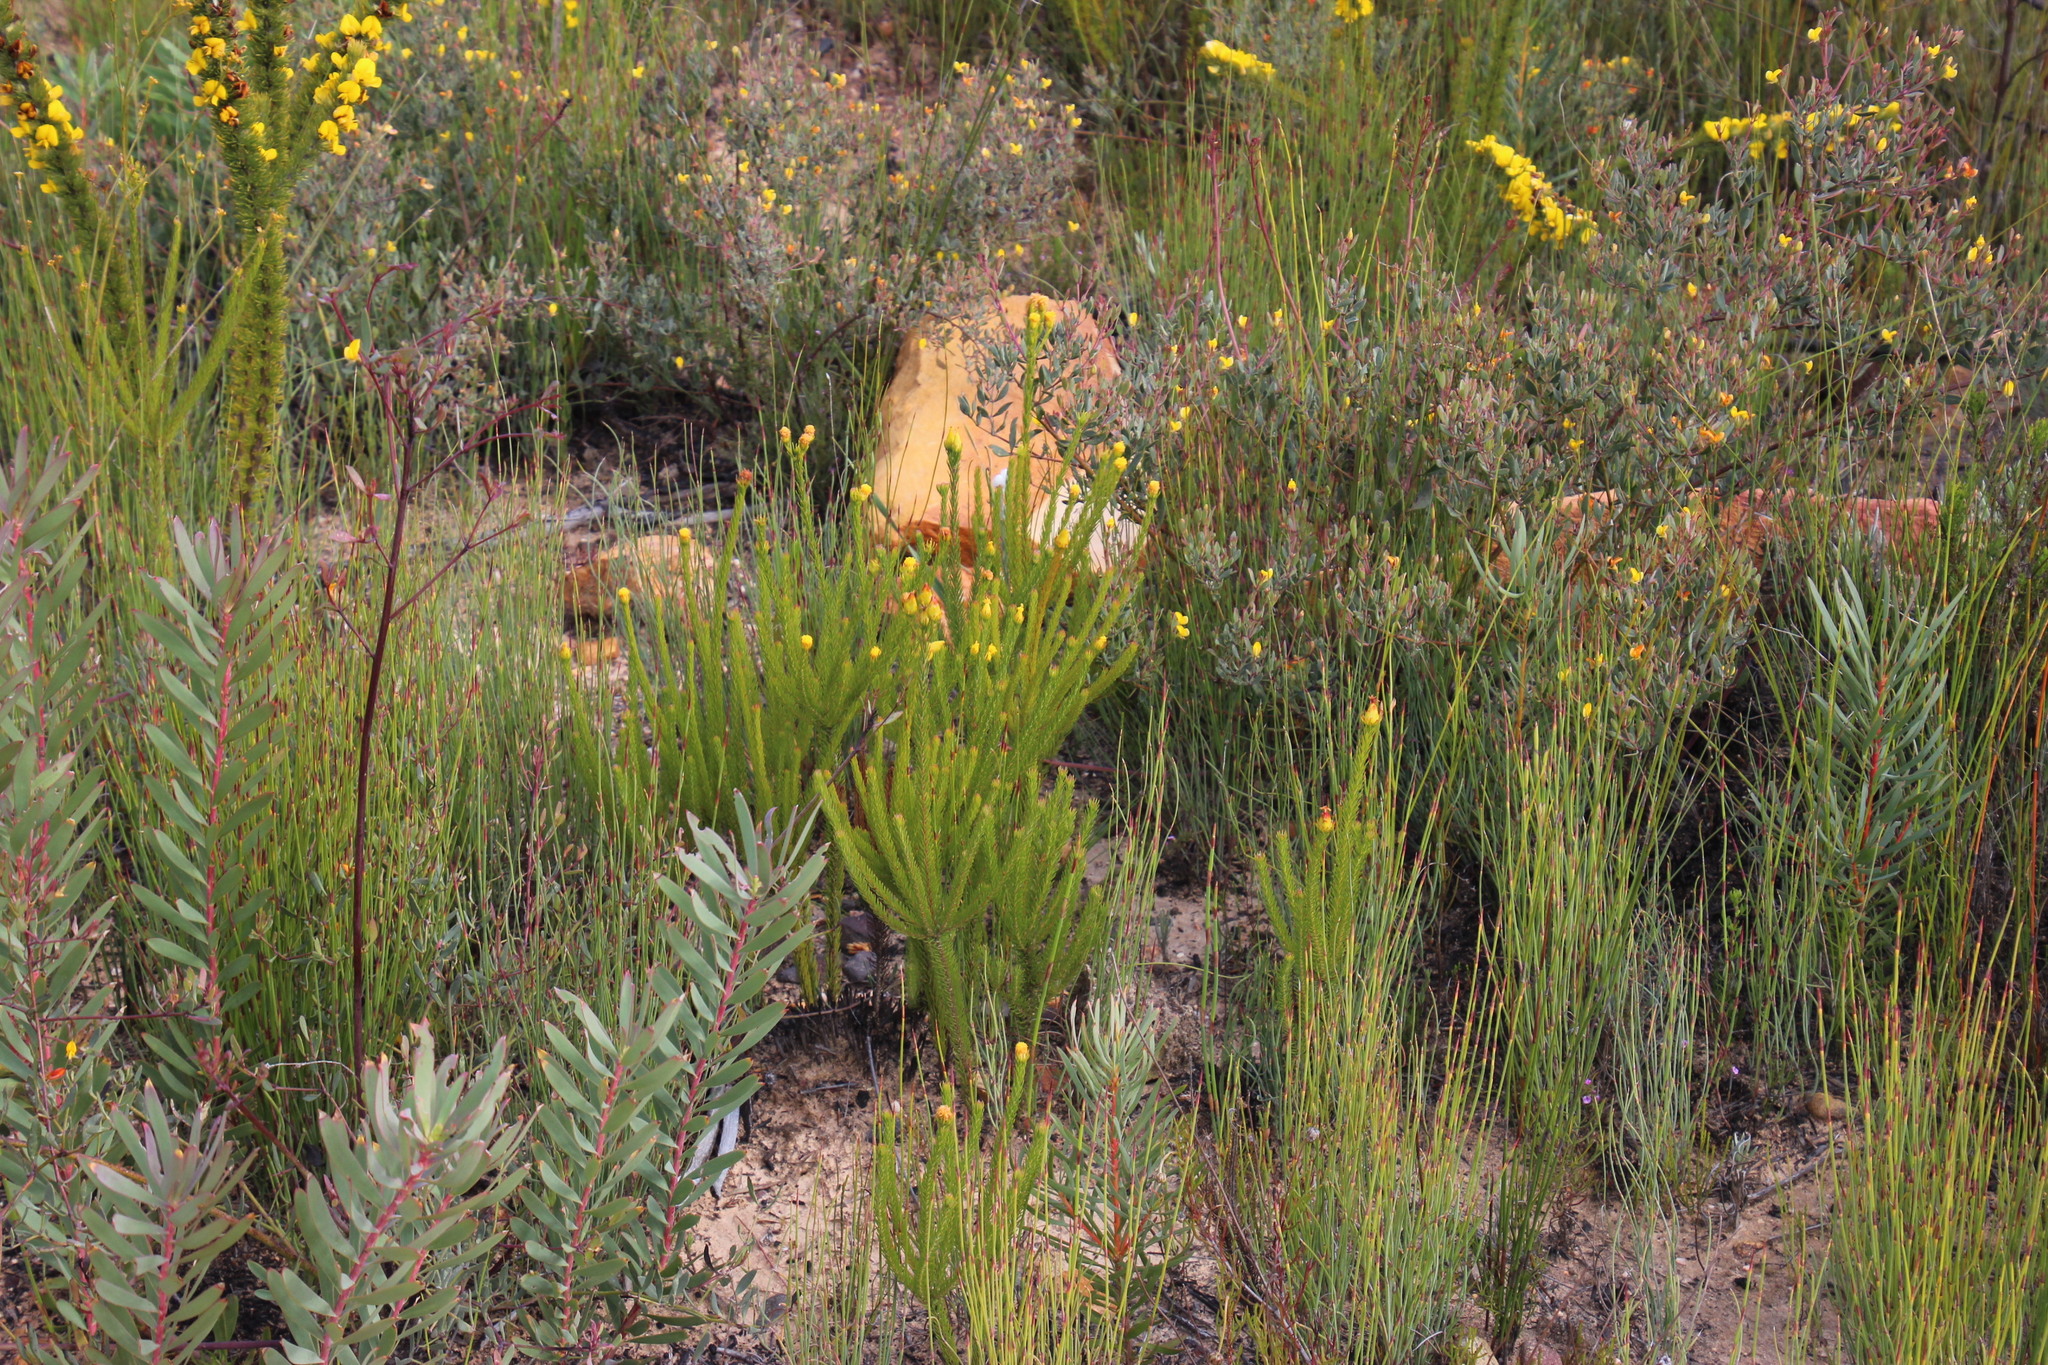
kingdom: Plantae
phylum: Tracheophyta
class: Magnoliopsida
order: Proteales
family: Proteaceae
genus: Leucadendron
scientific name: Leucadendron olens
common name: Yellow conebush
